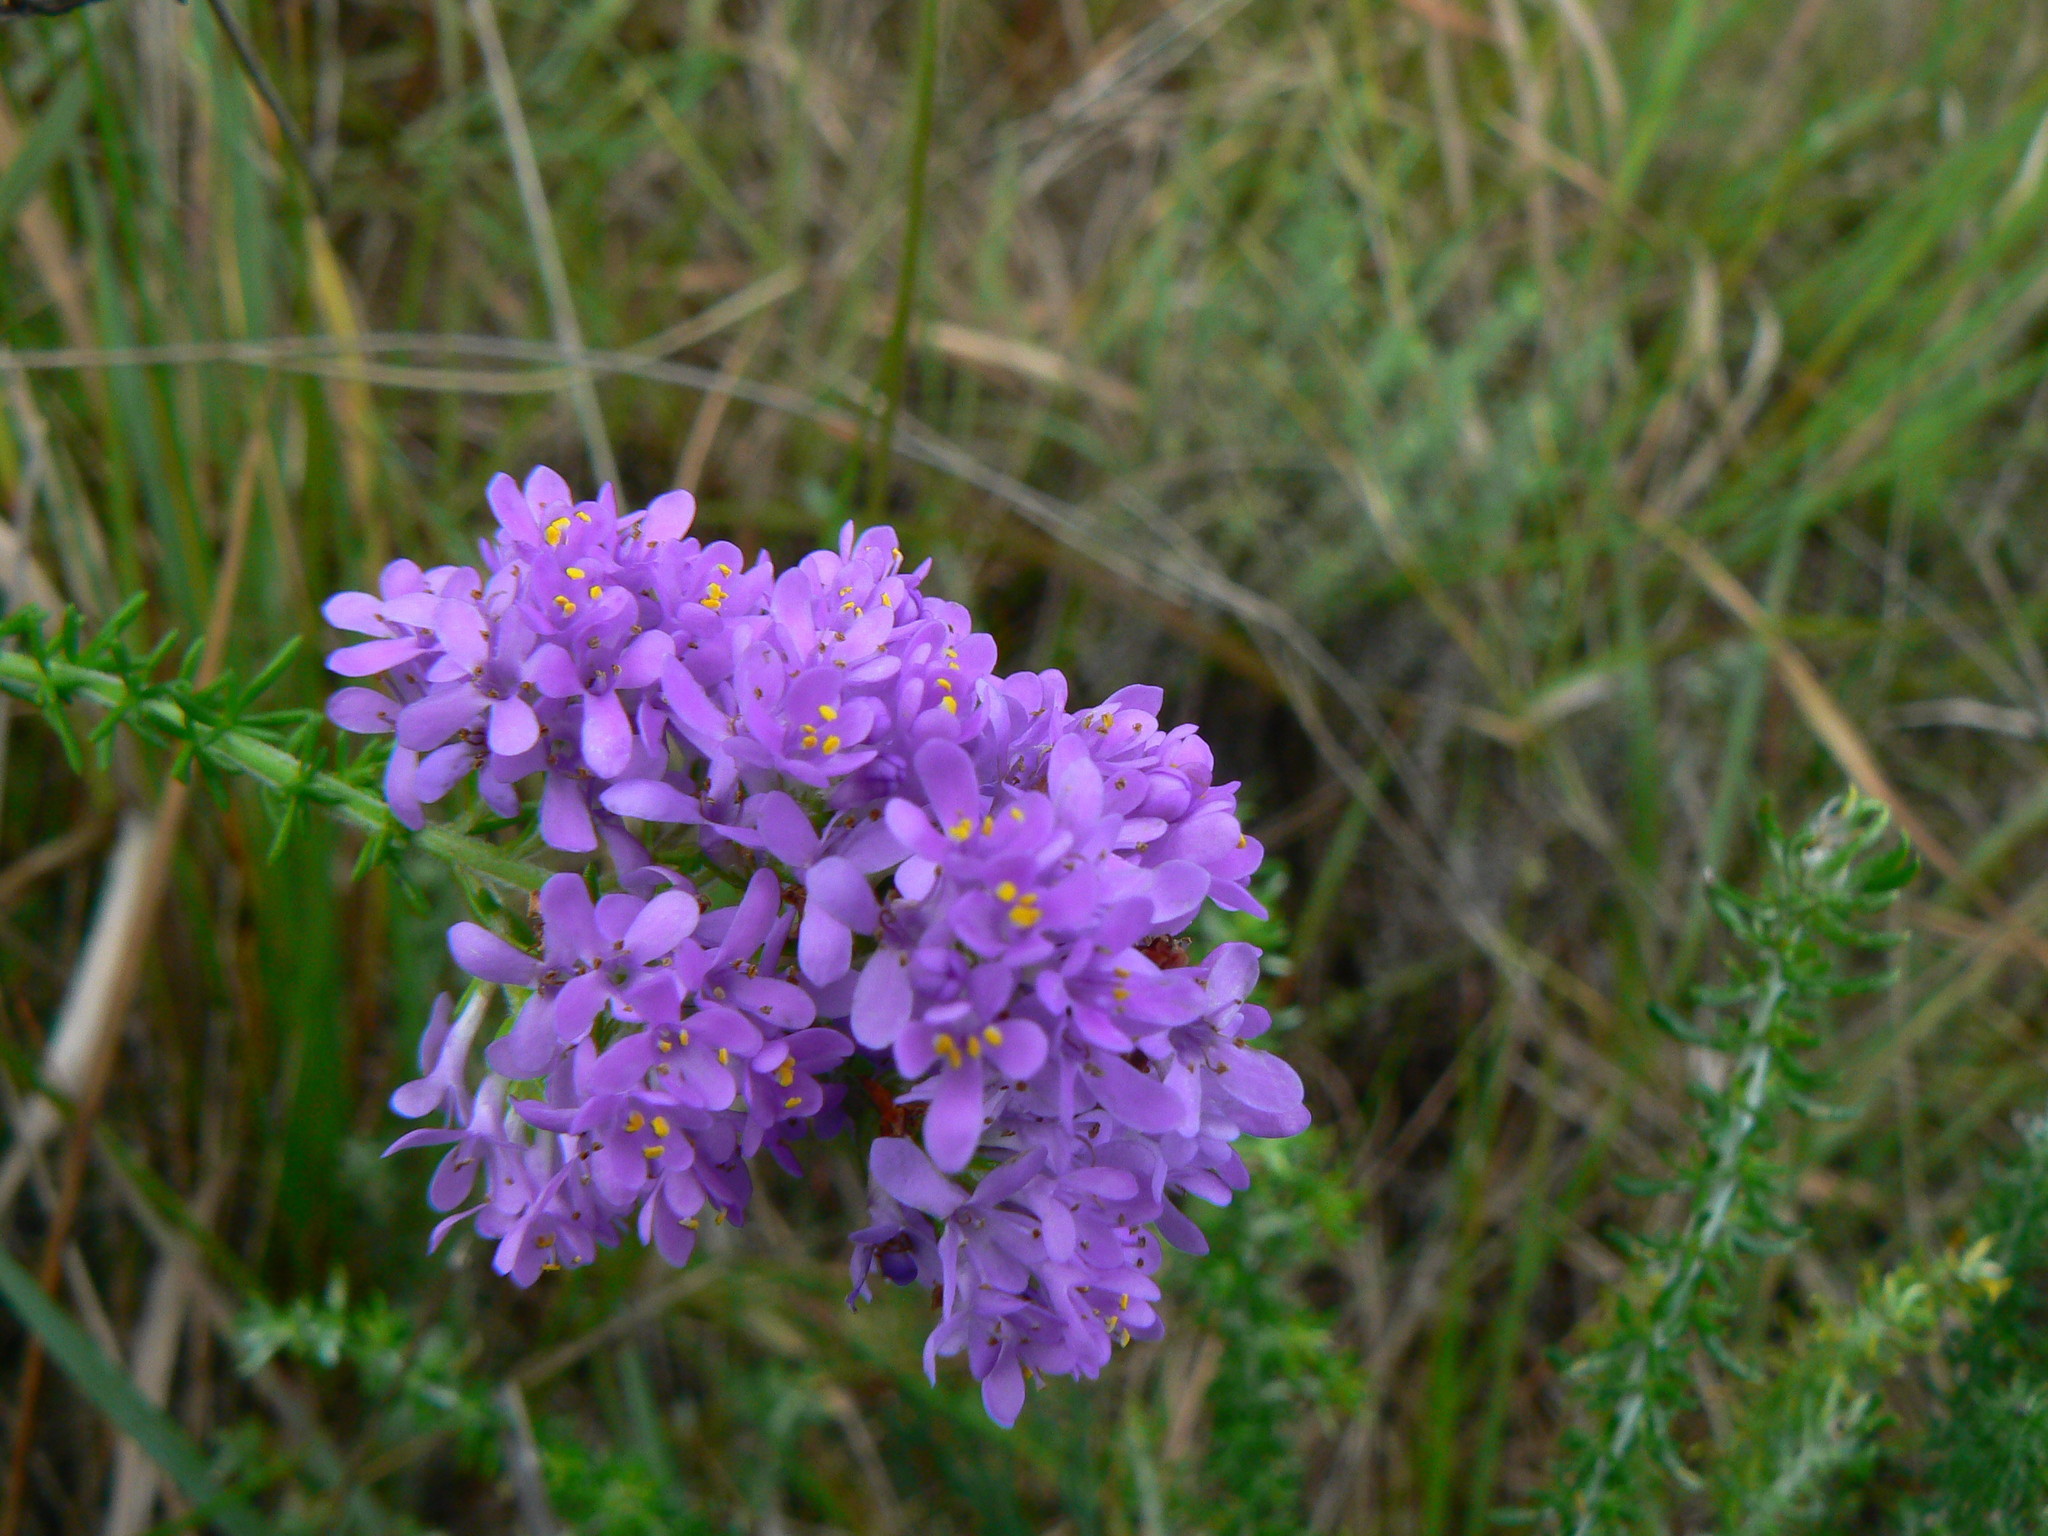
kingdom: Plantae
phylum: Tracheophyta
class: Magnoliopsida
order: Lamiales
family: Scrophulariaceae
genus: Selago
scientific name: Selago villicaulis
